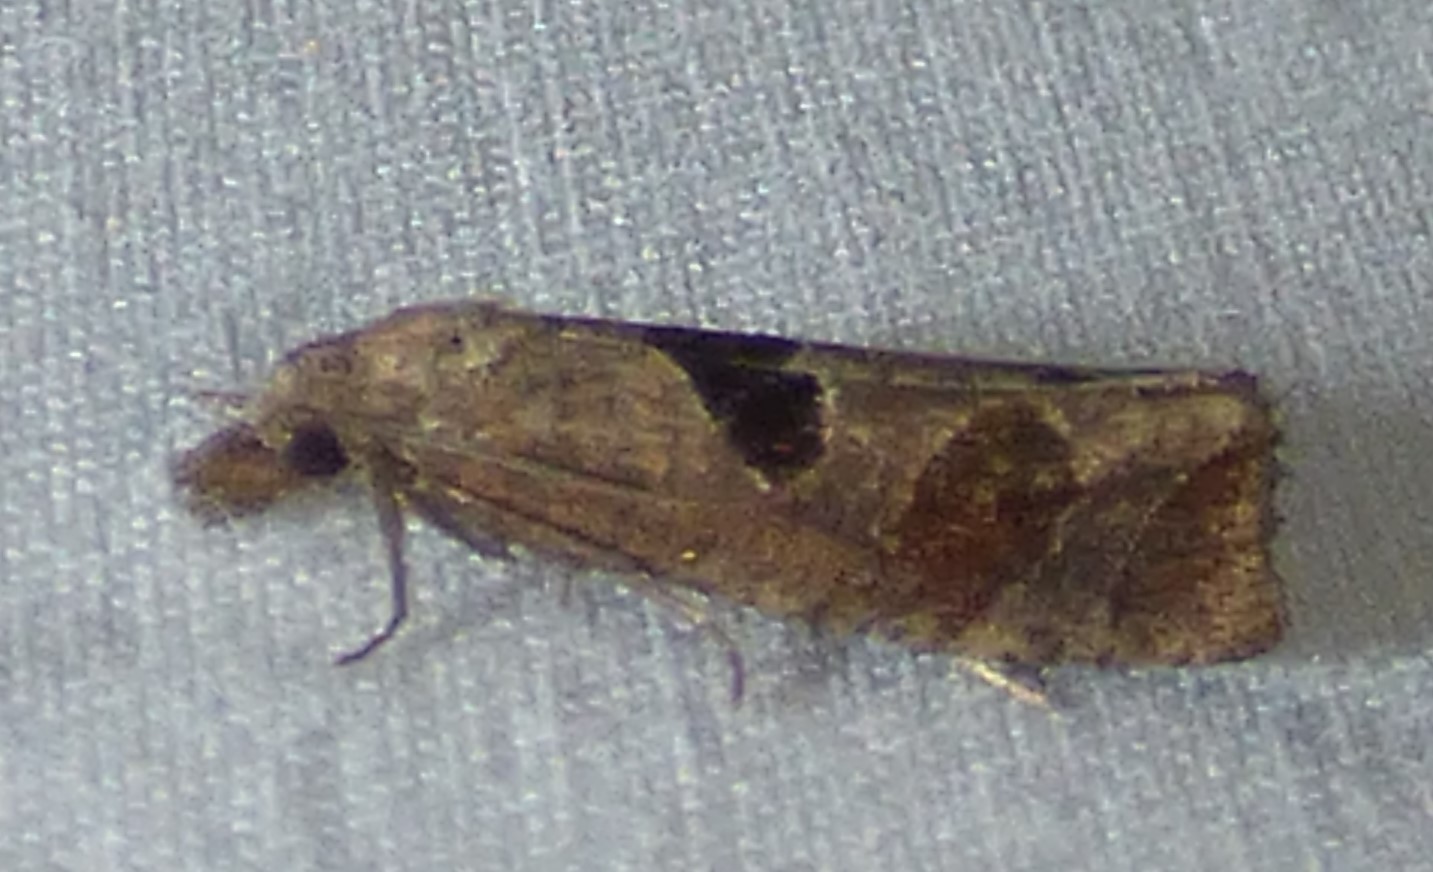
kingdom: Animalia
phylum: Arthropoda
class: Insecta
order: Lepidoptera
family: Tortricidae
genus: Pelochrista
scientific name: Pelochrista dorsisignatana
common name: Triangle-backed pelochrista moth
